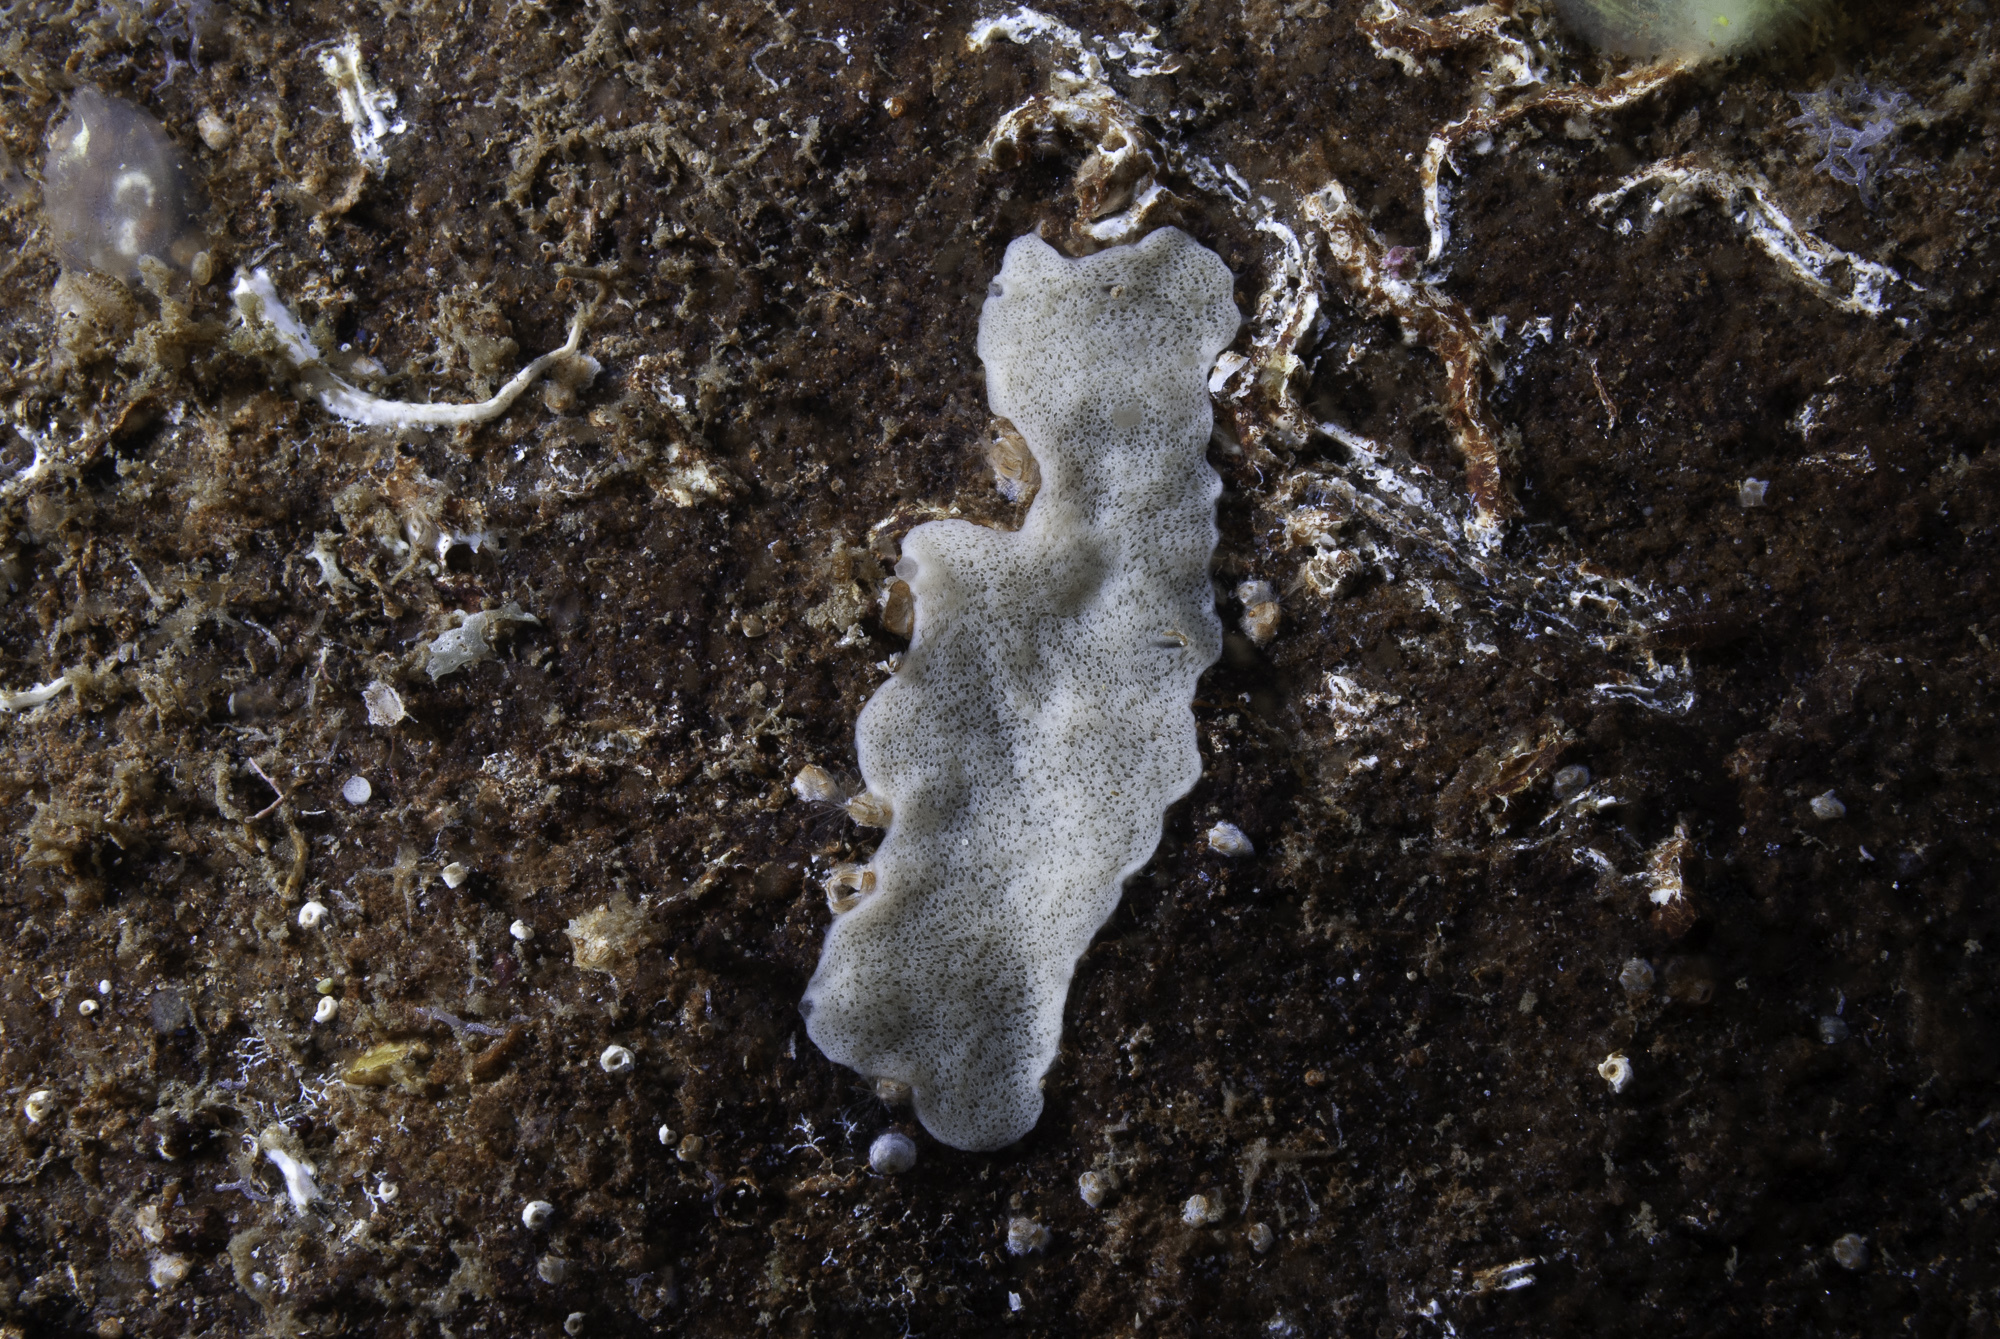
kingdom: Animalia
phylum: Porifera
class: Homoscleromorpha
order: Homosclerophorida
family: Plakinidae
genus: Plakina
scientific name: Plakina monolopha
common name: Simple-rayed membrane sponge
